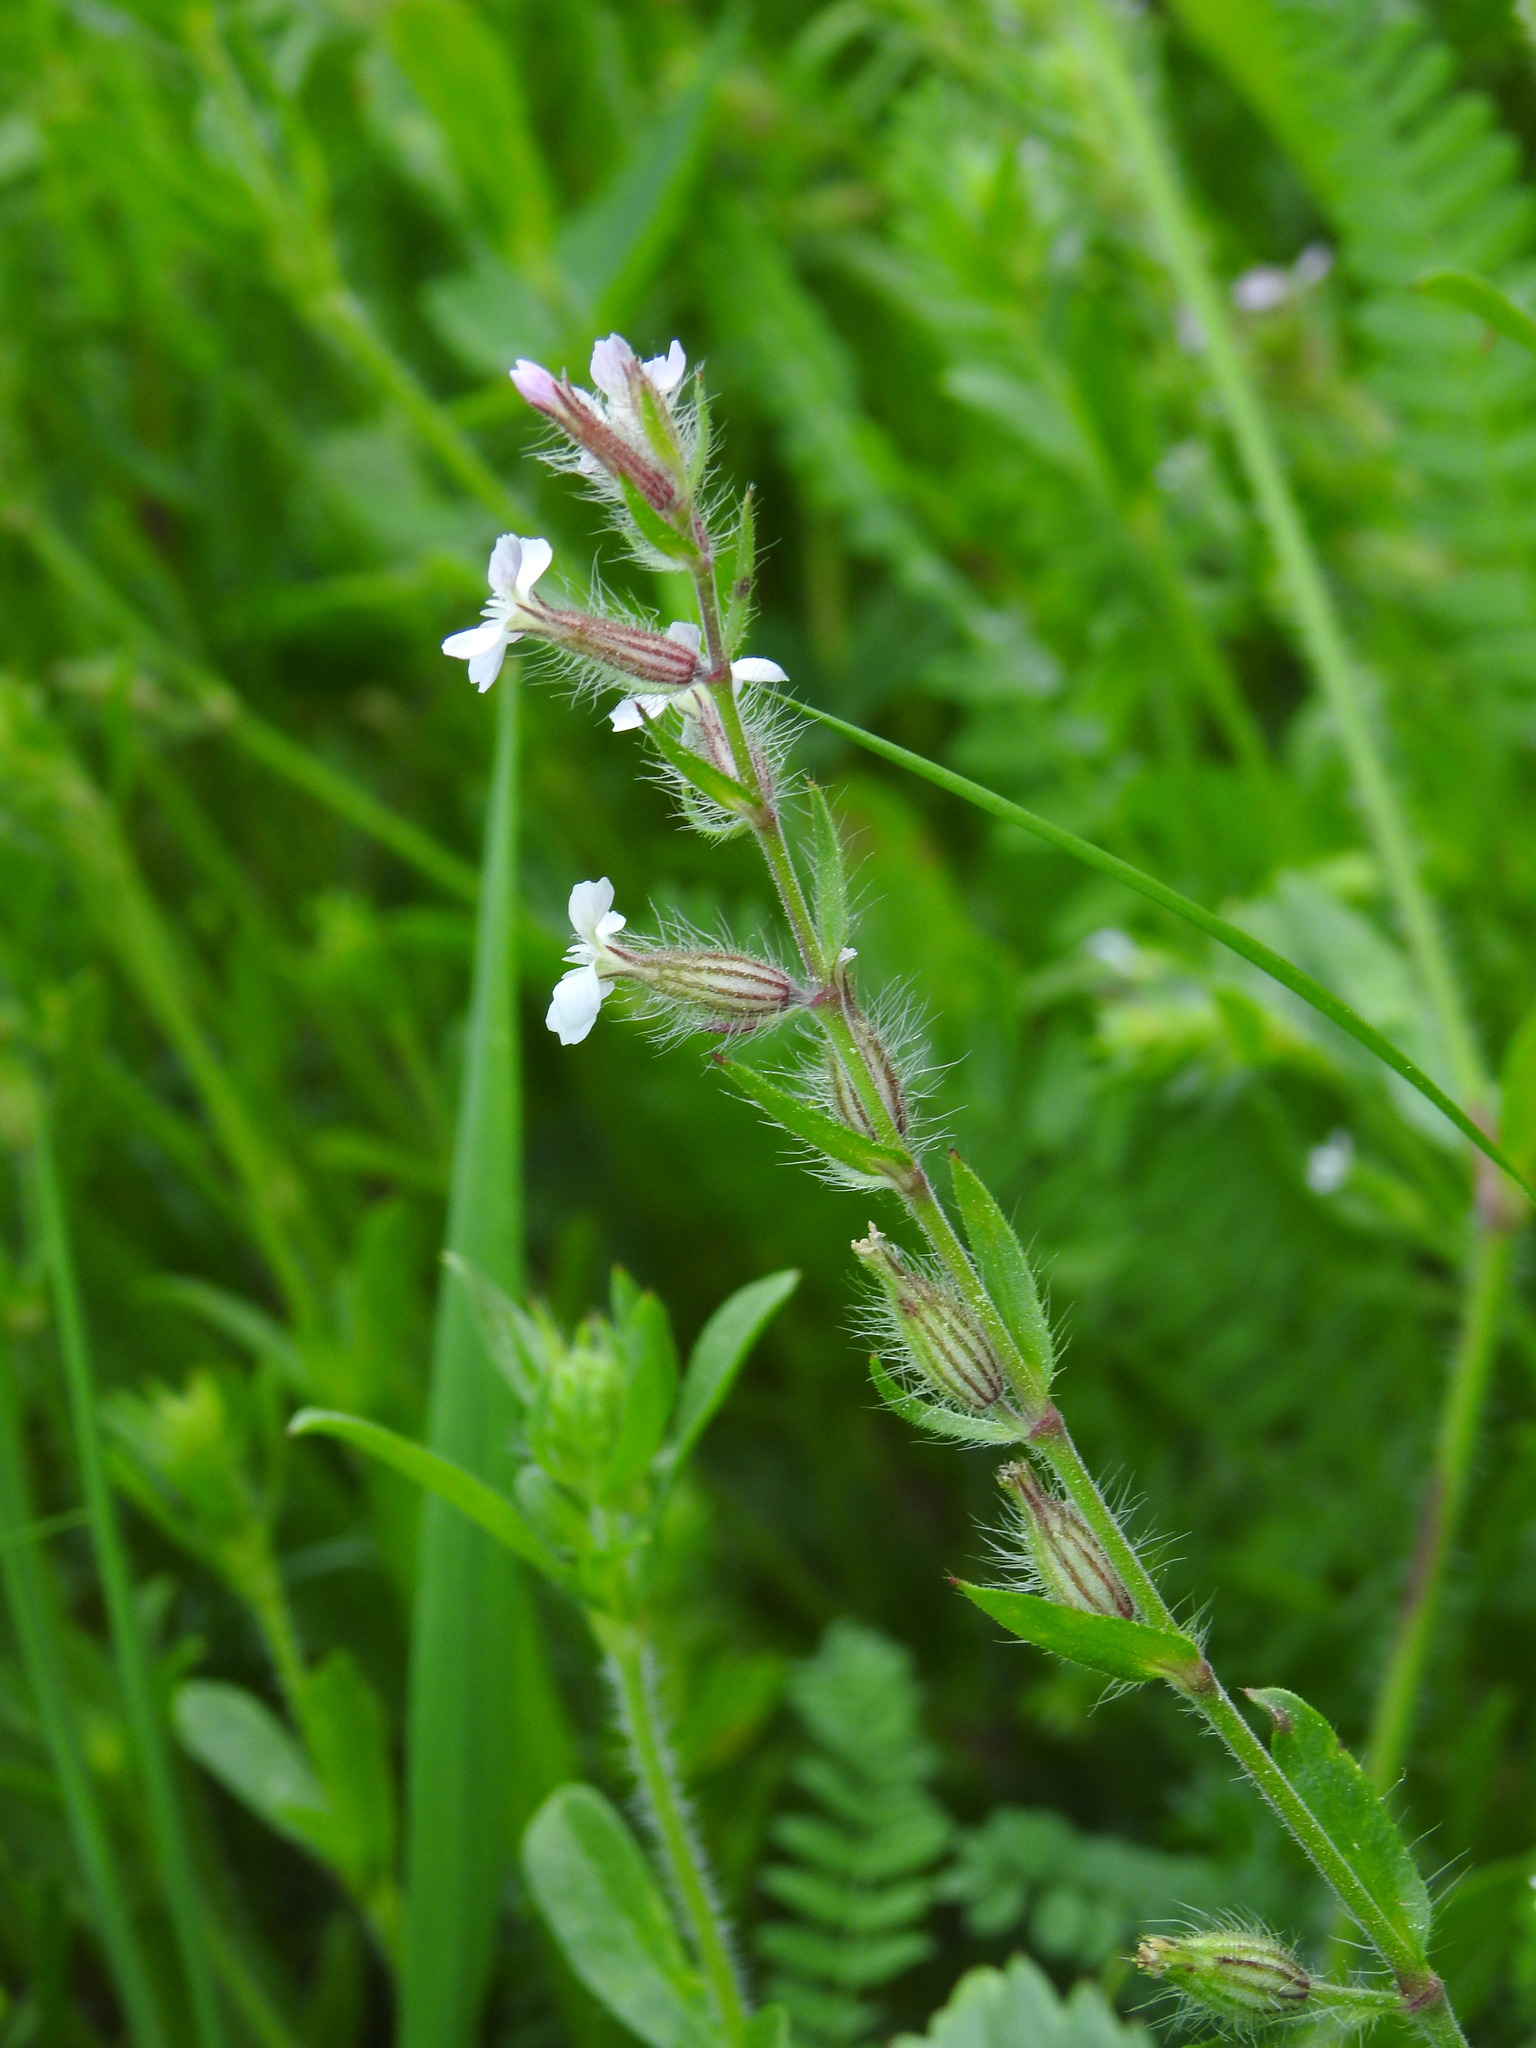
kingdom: Plantae
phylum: Tracheophyta
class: Magnoliopsida
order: Caryophyllales
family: Caryophyllaceae
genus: Silene
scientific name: Silene gallica
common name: Small-flowered catchfly
